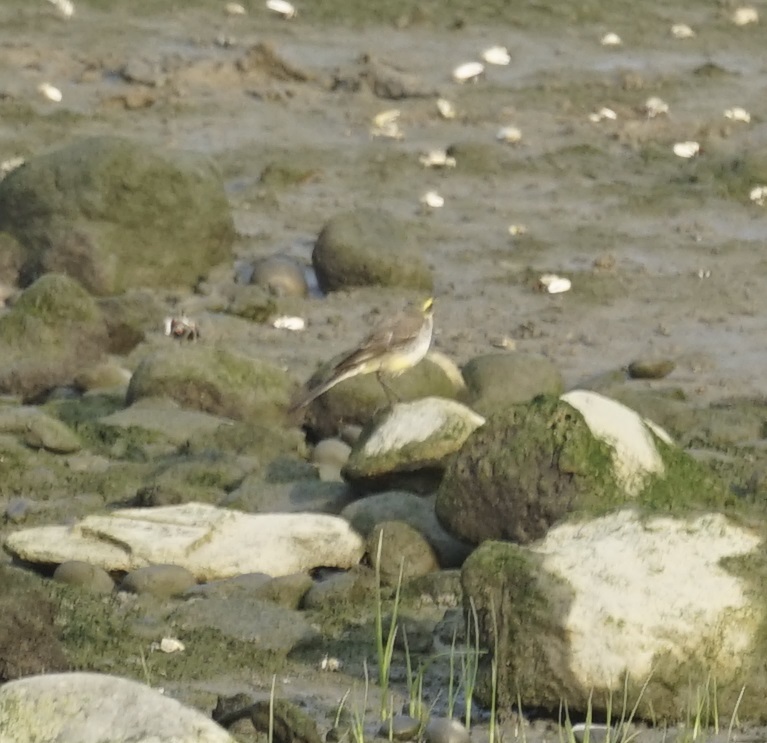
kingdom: Animalia
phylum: Chordata
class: Aves
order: Passeriformes
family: Motacillidae
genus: Motacilla
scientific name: Motacilla tschutschensis
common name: Eastern yellow wagtail
